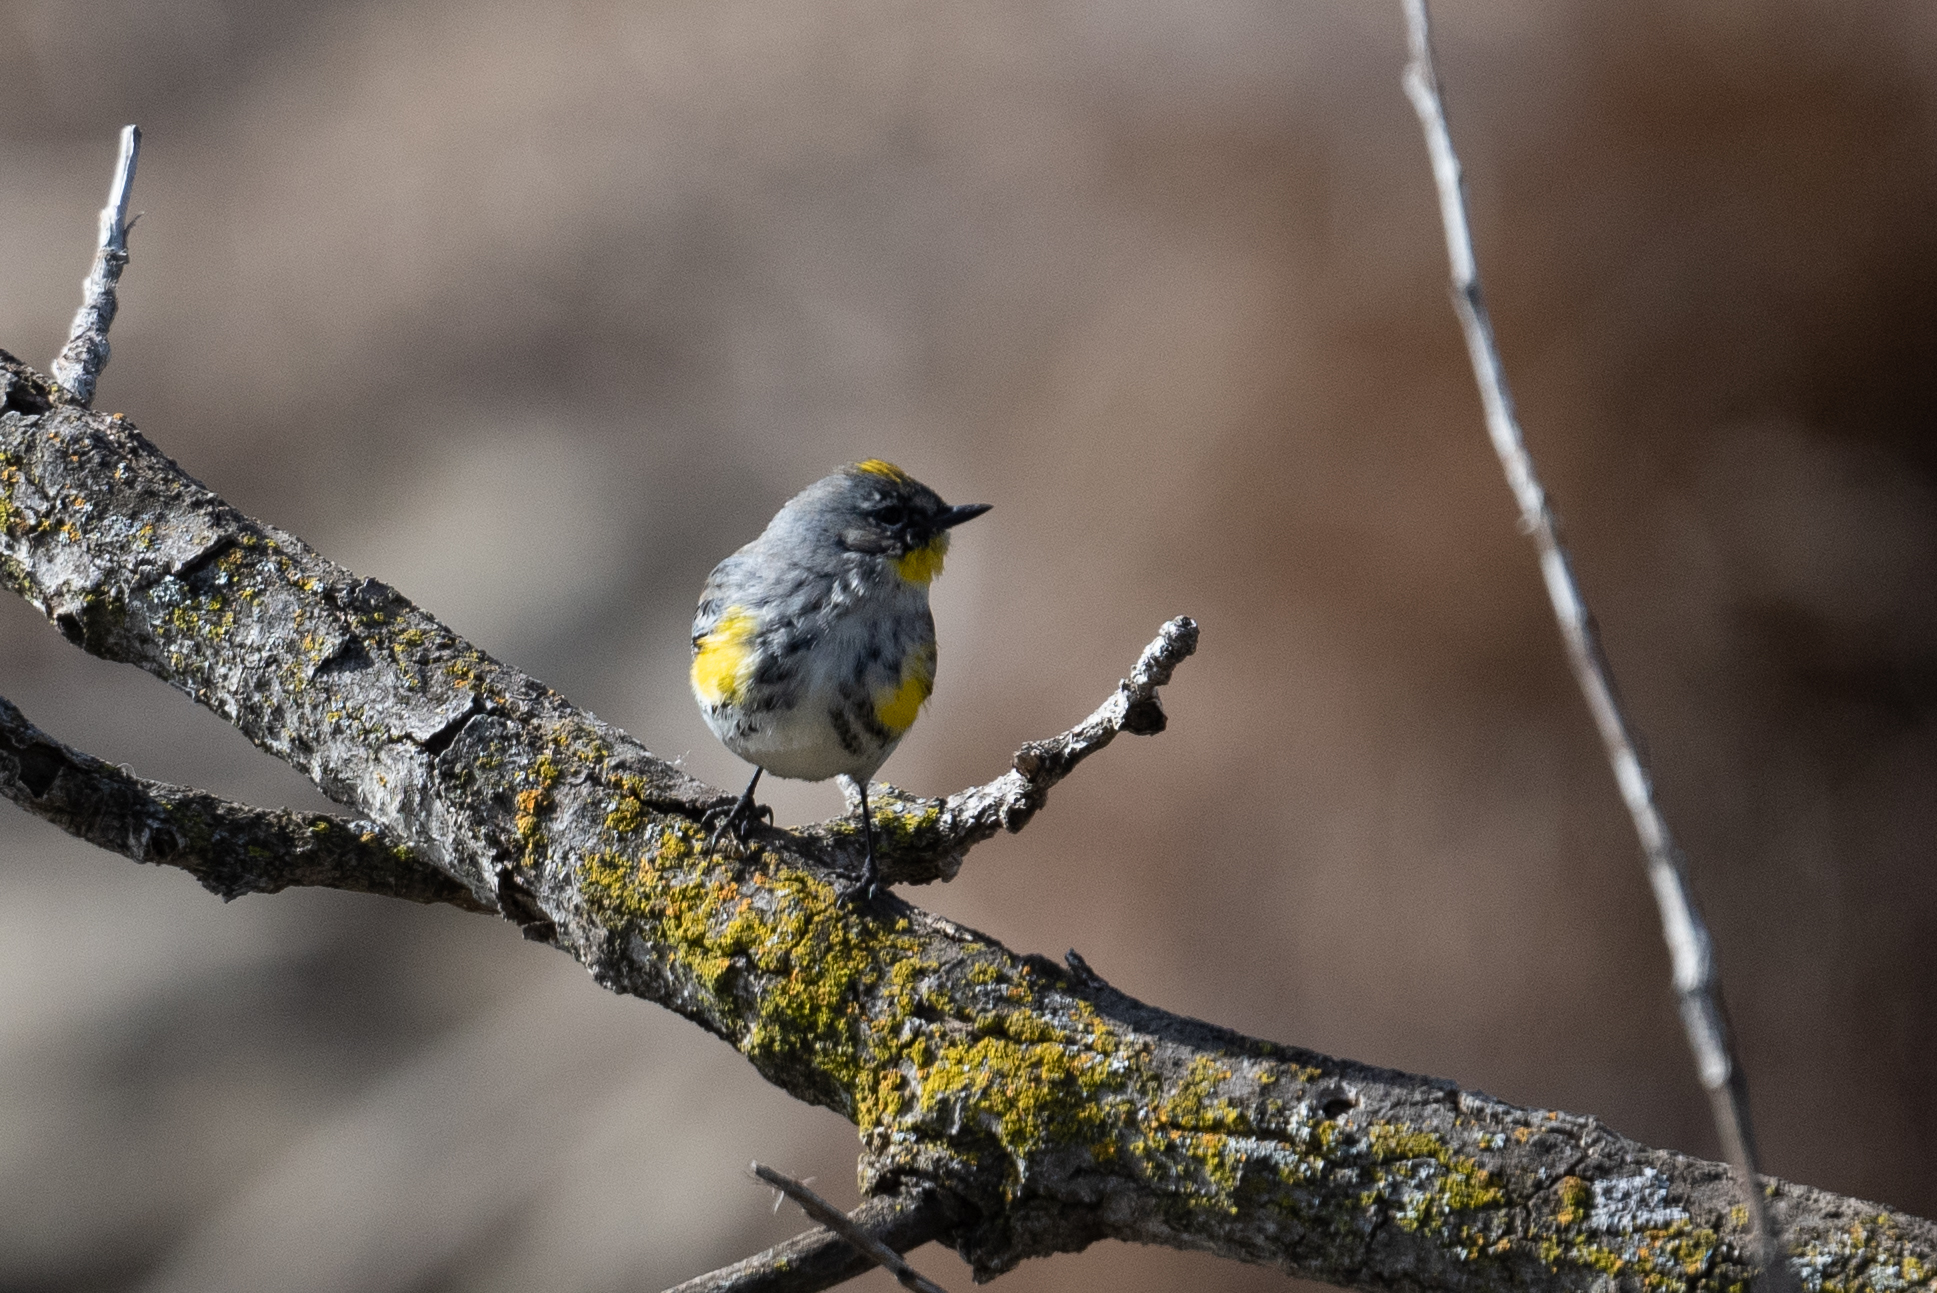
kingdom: Animalia
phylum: Chordata
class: Aves
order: Passeriformes
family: Parulidae
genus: Setophaga
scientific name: Setophaga coronata
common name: Myrtle warbler
